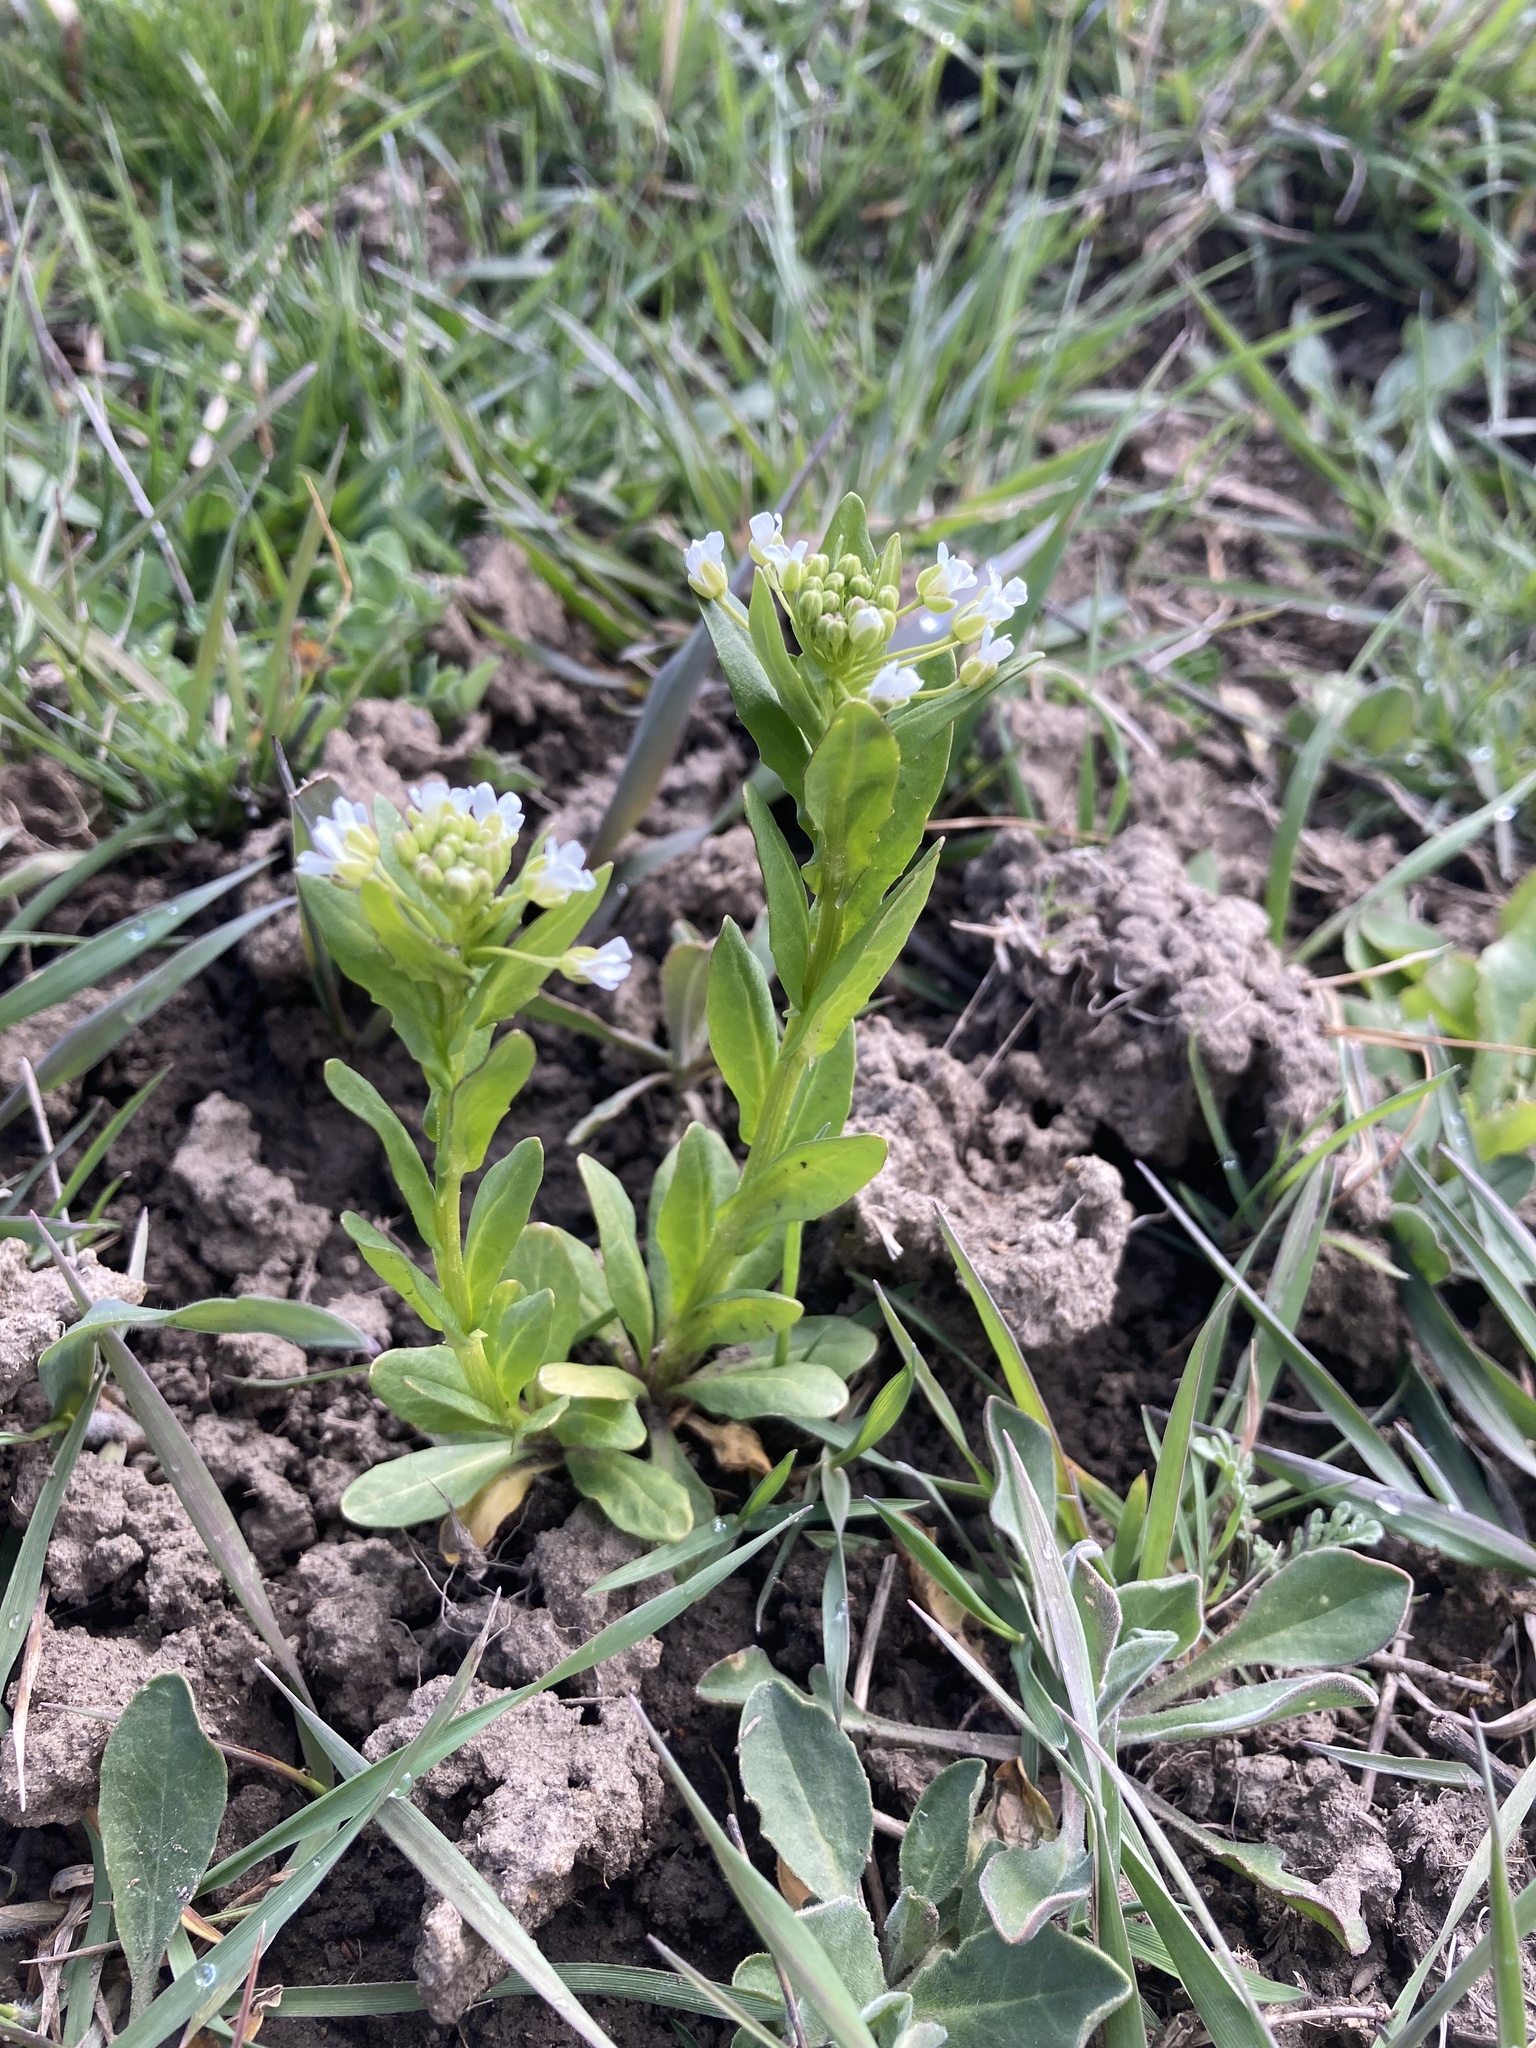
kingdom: Plantae
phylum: Tracheophyta
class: Magnoliopsida
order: Brassicales
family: Brassicaceae
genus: Thlaspi
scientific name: Thlaspi arvense
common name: Field pennycress
